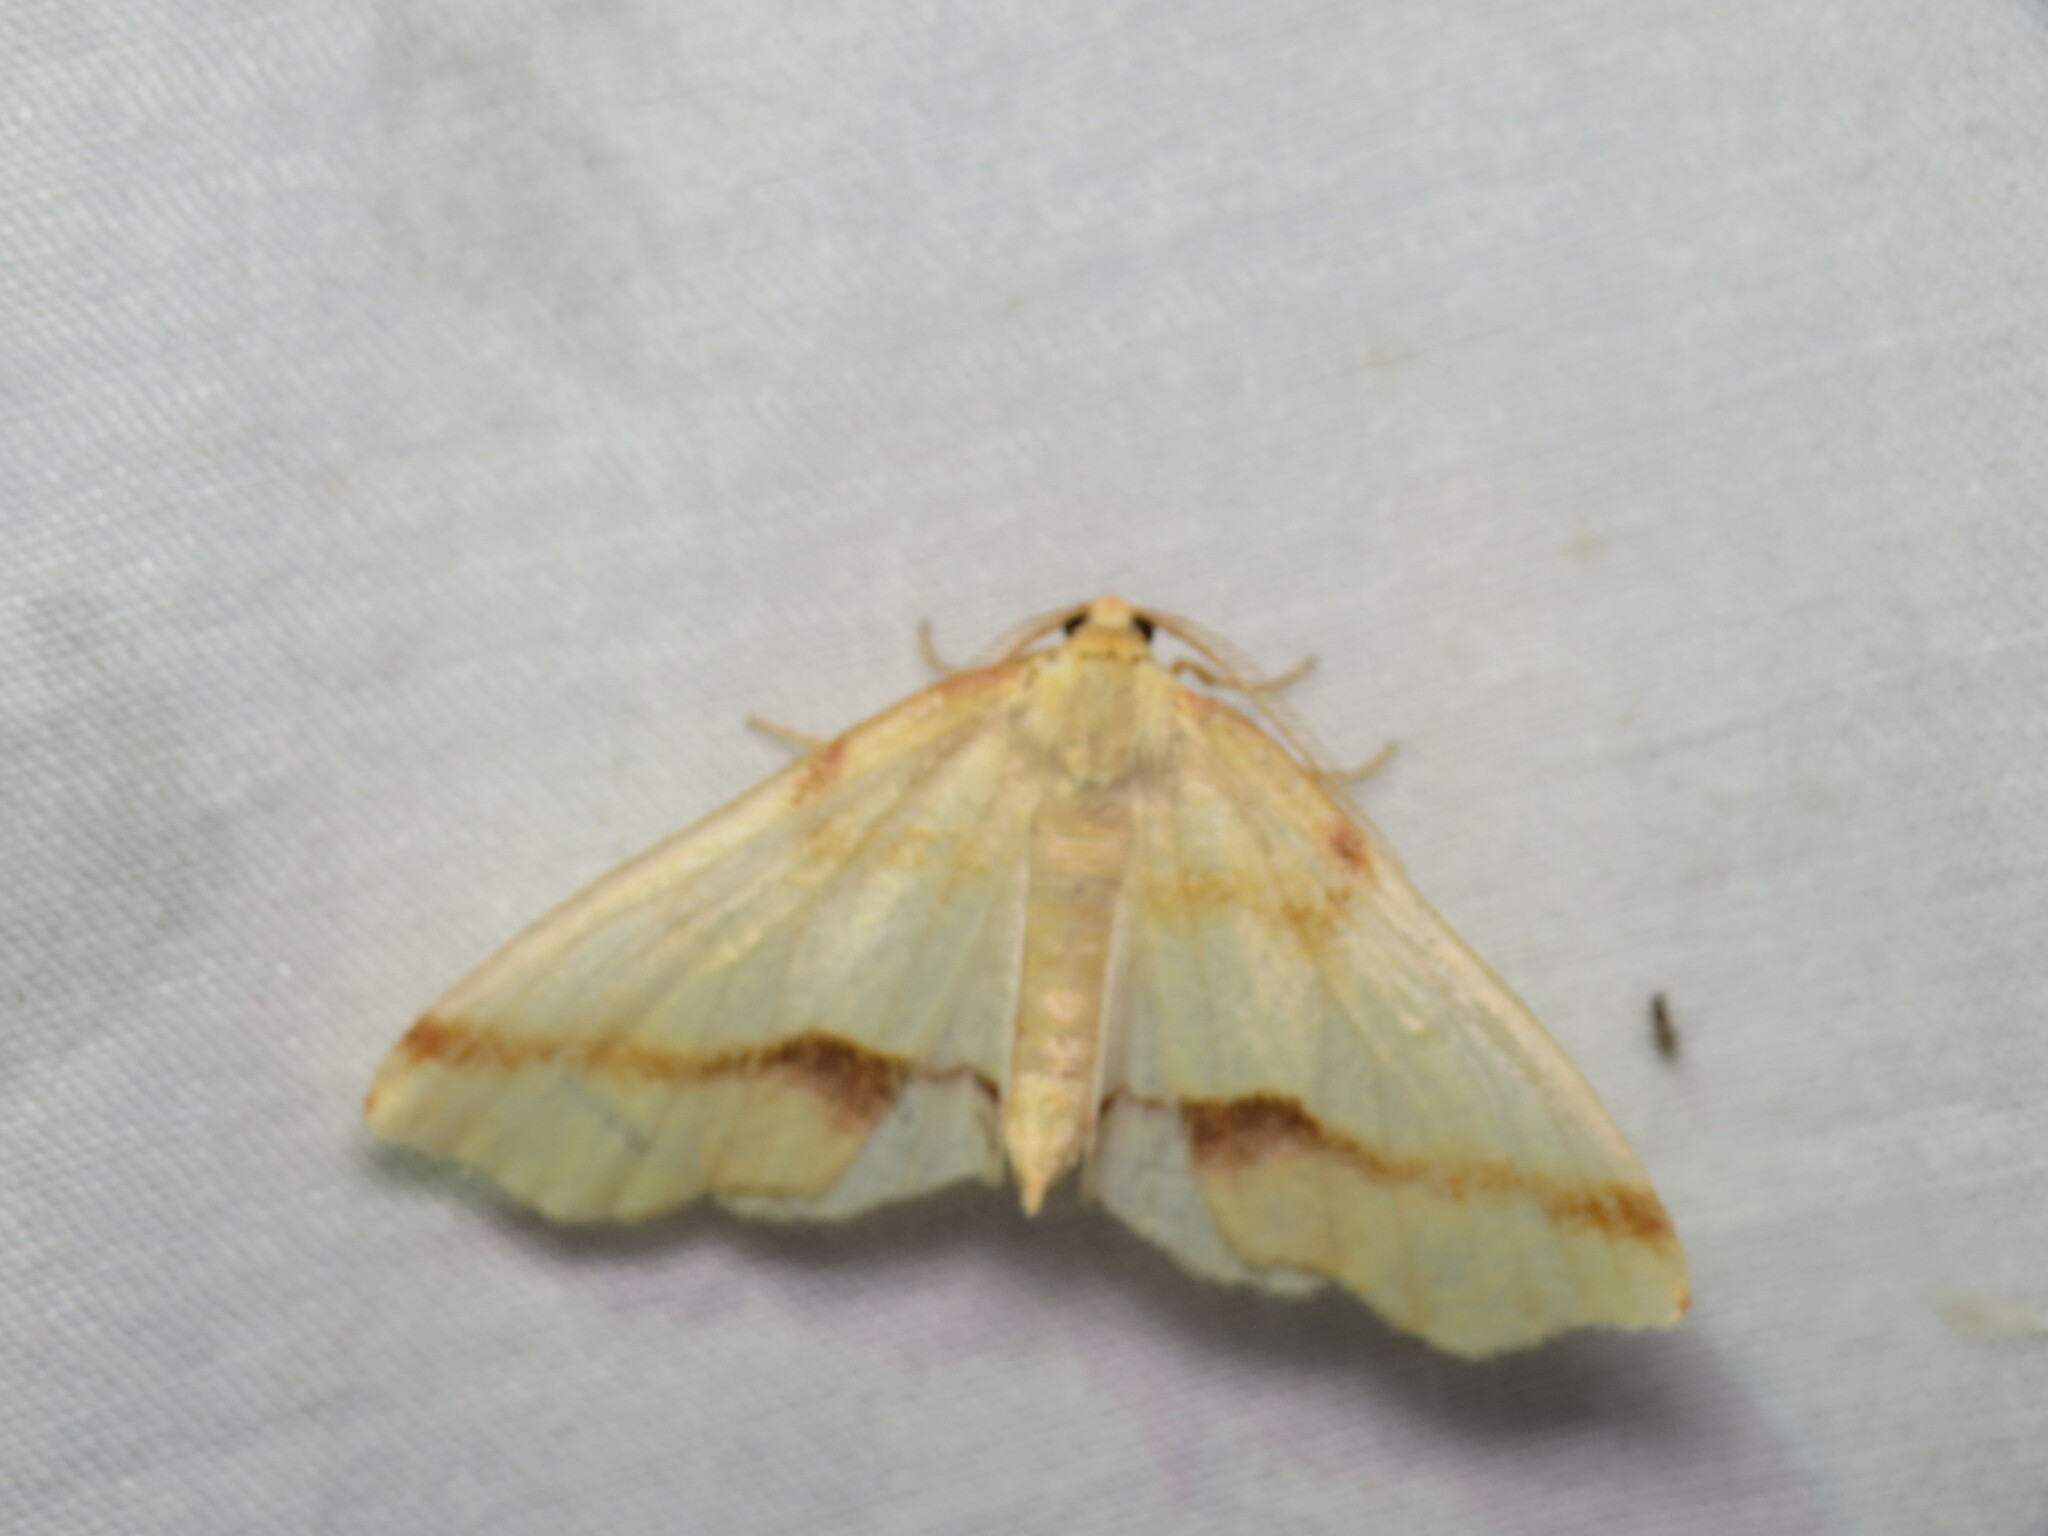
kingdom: Animalia
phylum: Arthropoda
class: Insecta
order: Lepidoptera
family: Geometridae
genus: Plagodis
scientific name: Plagodis serinaria
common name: Lemon plagodis
